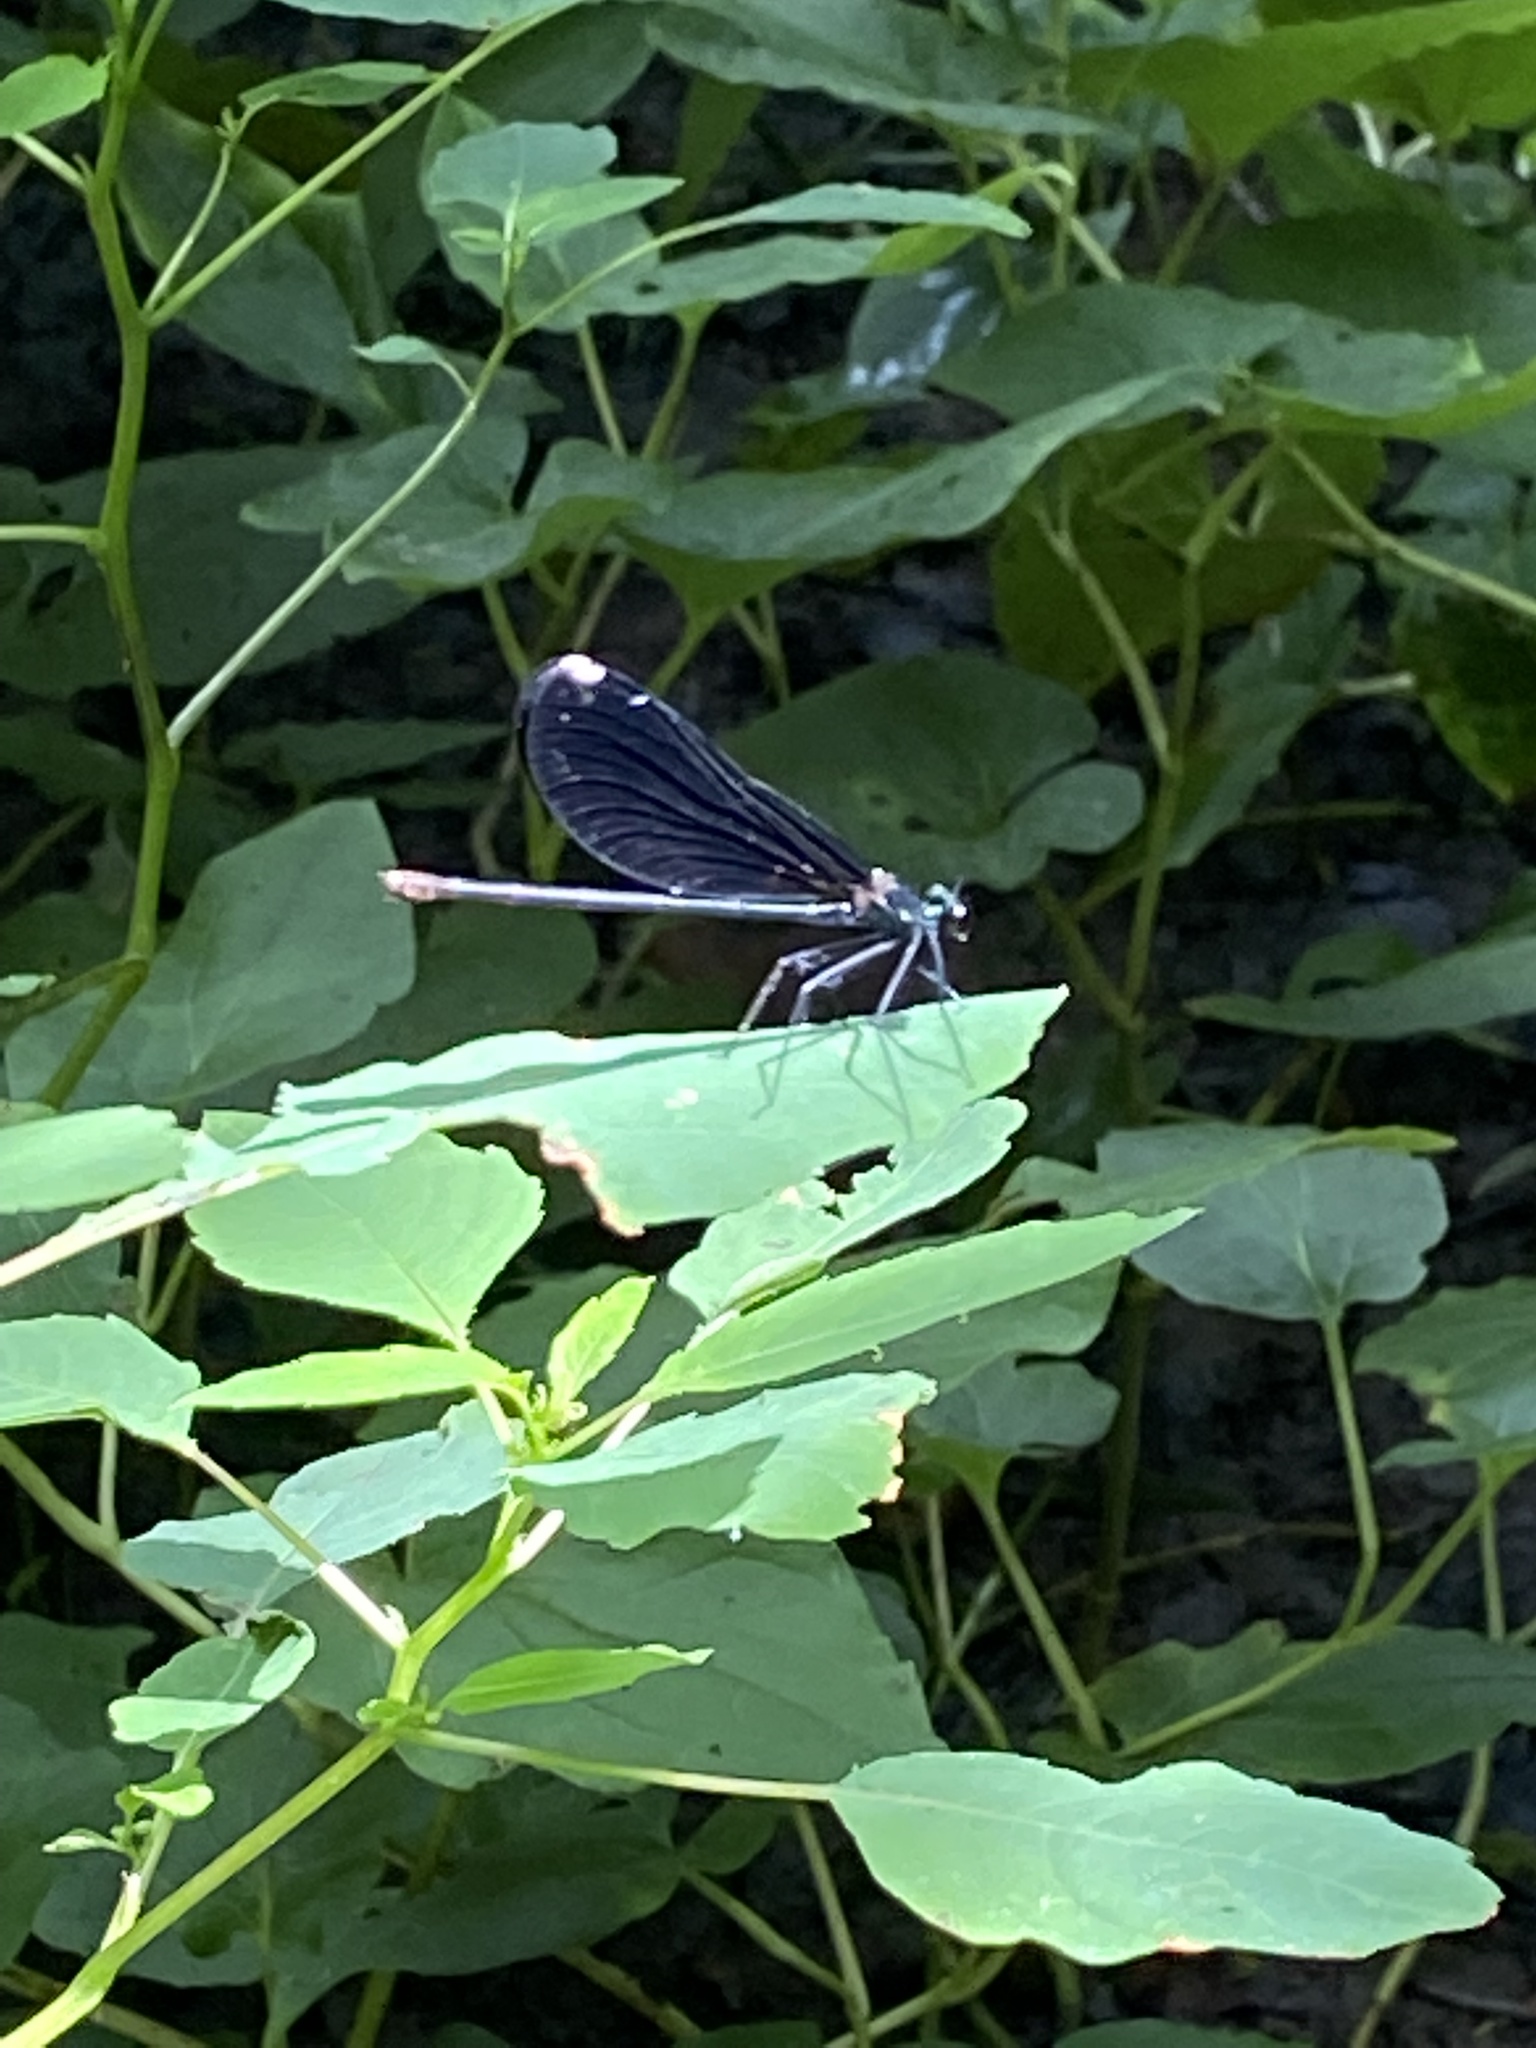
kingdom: Animalia
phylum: Arthropoda
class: Insecta
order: Odonata
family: Calopterygidae
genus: Calopteryx
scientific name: Calopteryx maculata
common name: Ebony jewelwing
